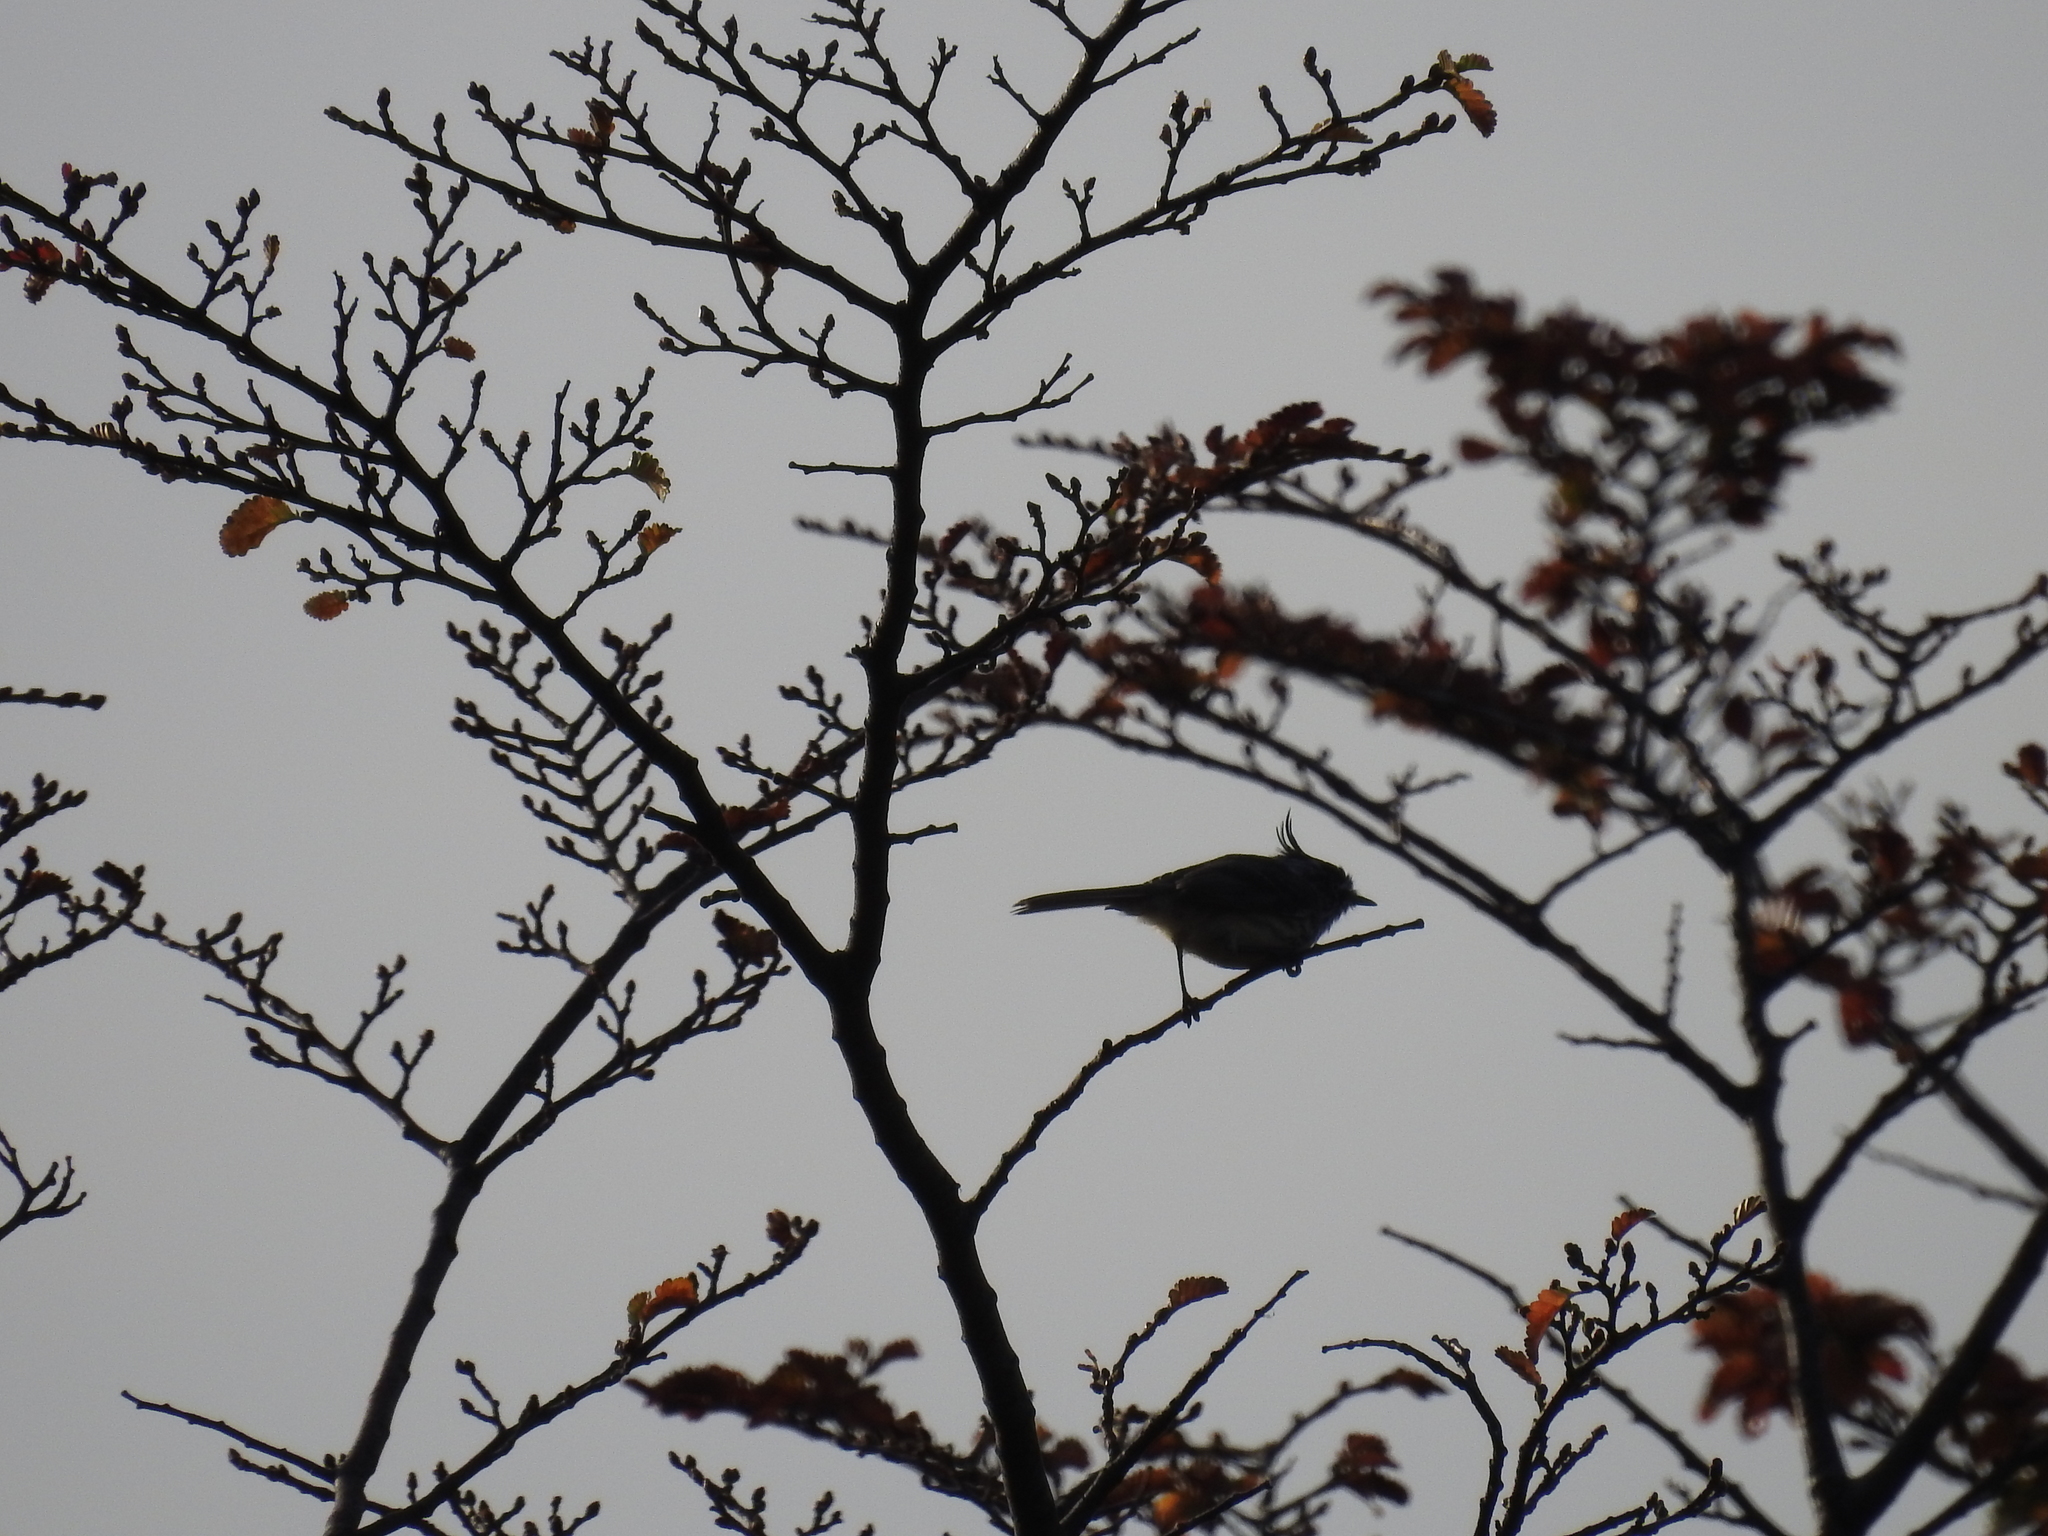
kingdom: Animalia
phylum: Chordata
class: Aves
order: Passeriformes
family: Tyrannidae
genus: Anairetes
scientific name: Anairetes parulus
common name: Tufted tit-tyrant
